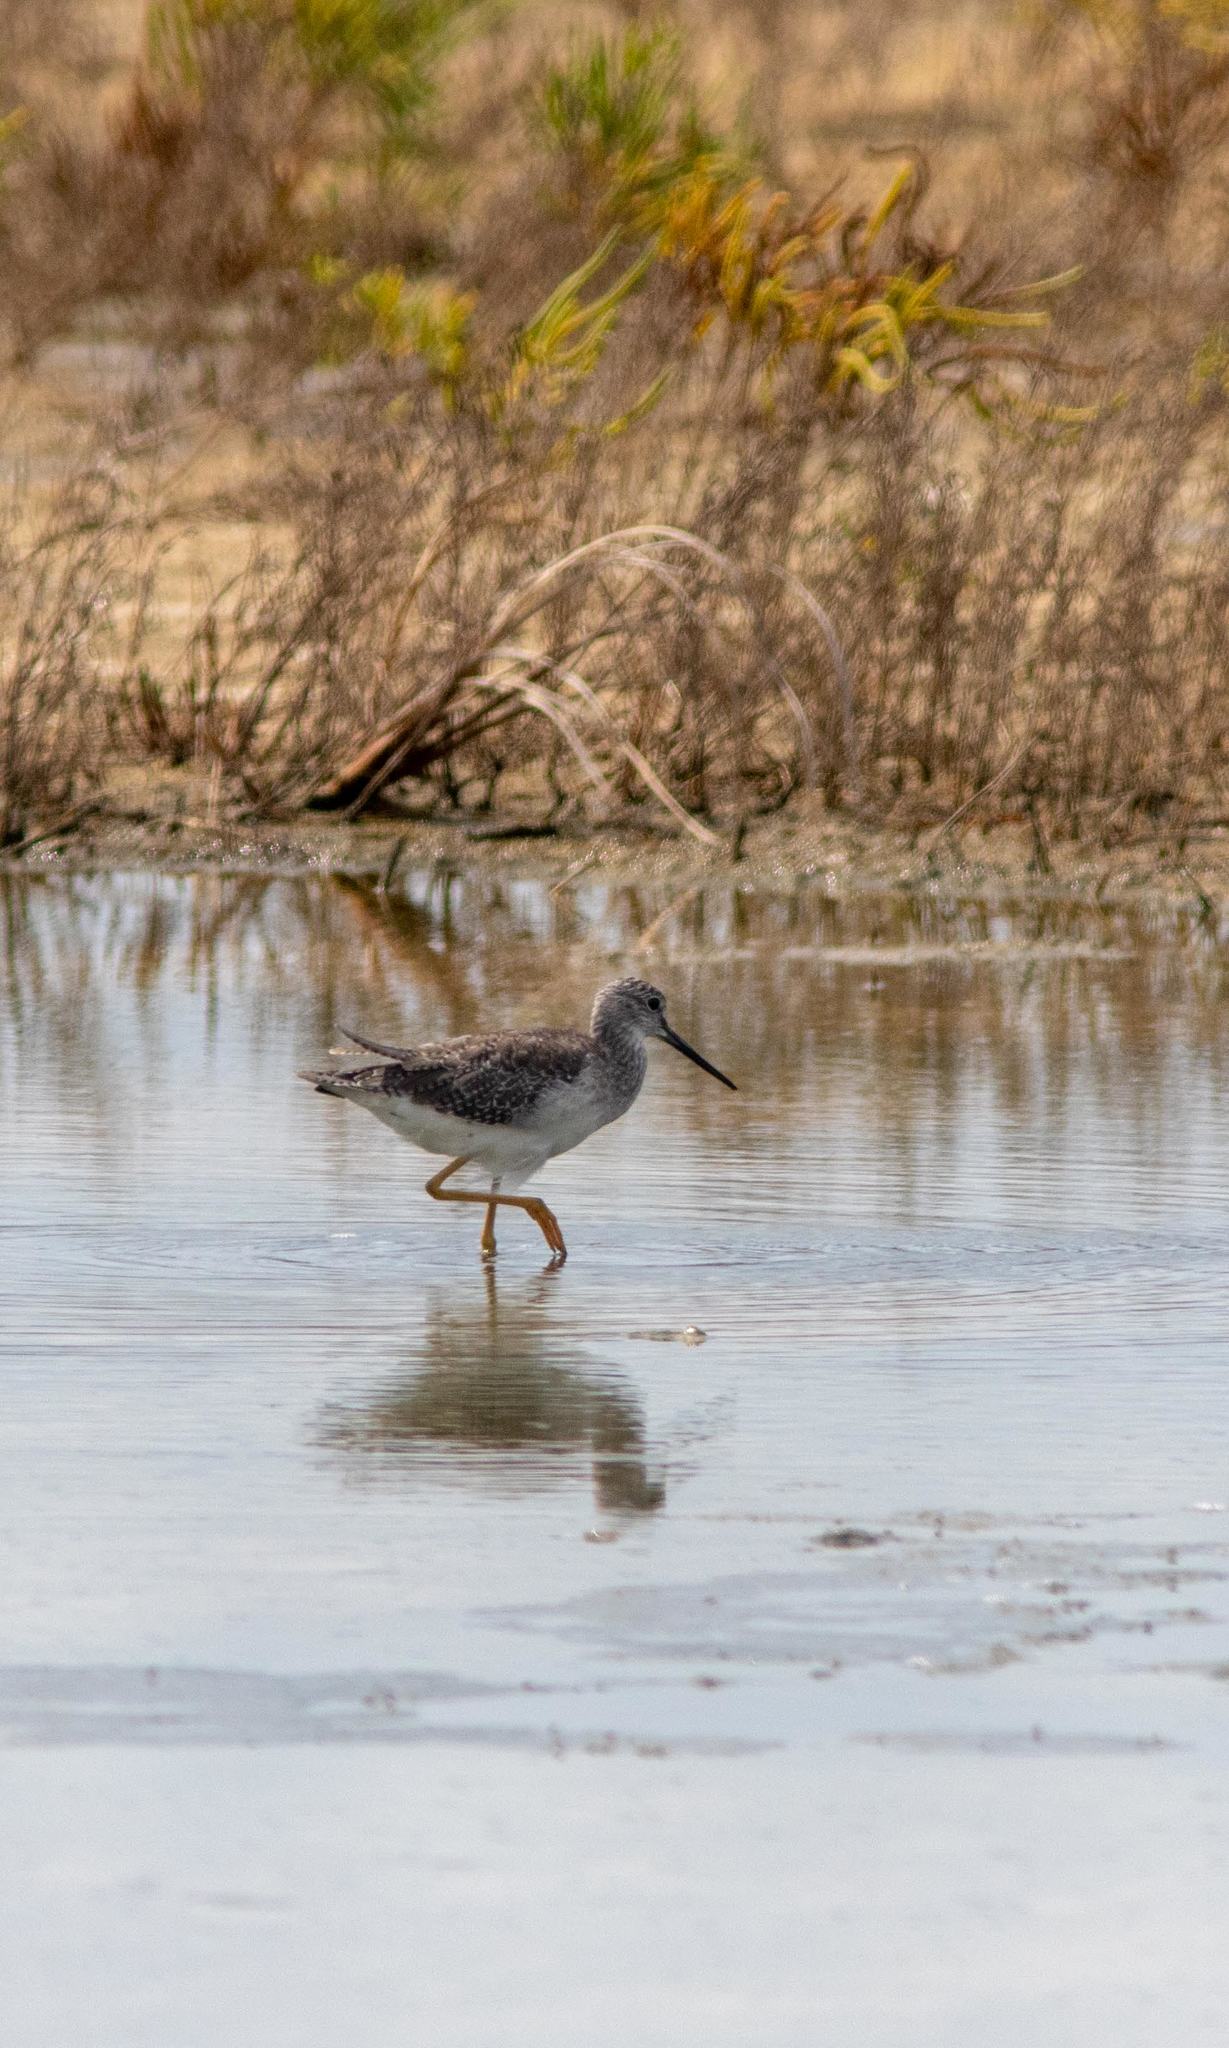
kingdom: Animalia
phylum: Chordata
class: Aves
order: Charadriiformes
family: Scolopacidae
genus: Tringa
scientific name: Tringa melanoleuca
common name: Greater yellowlegs
